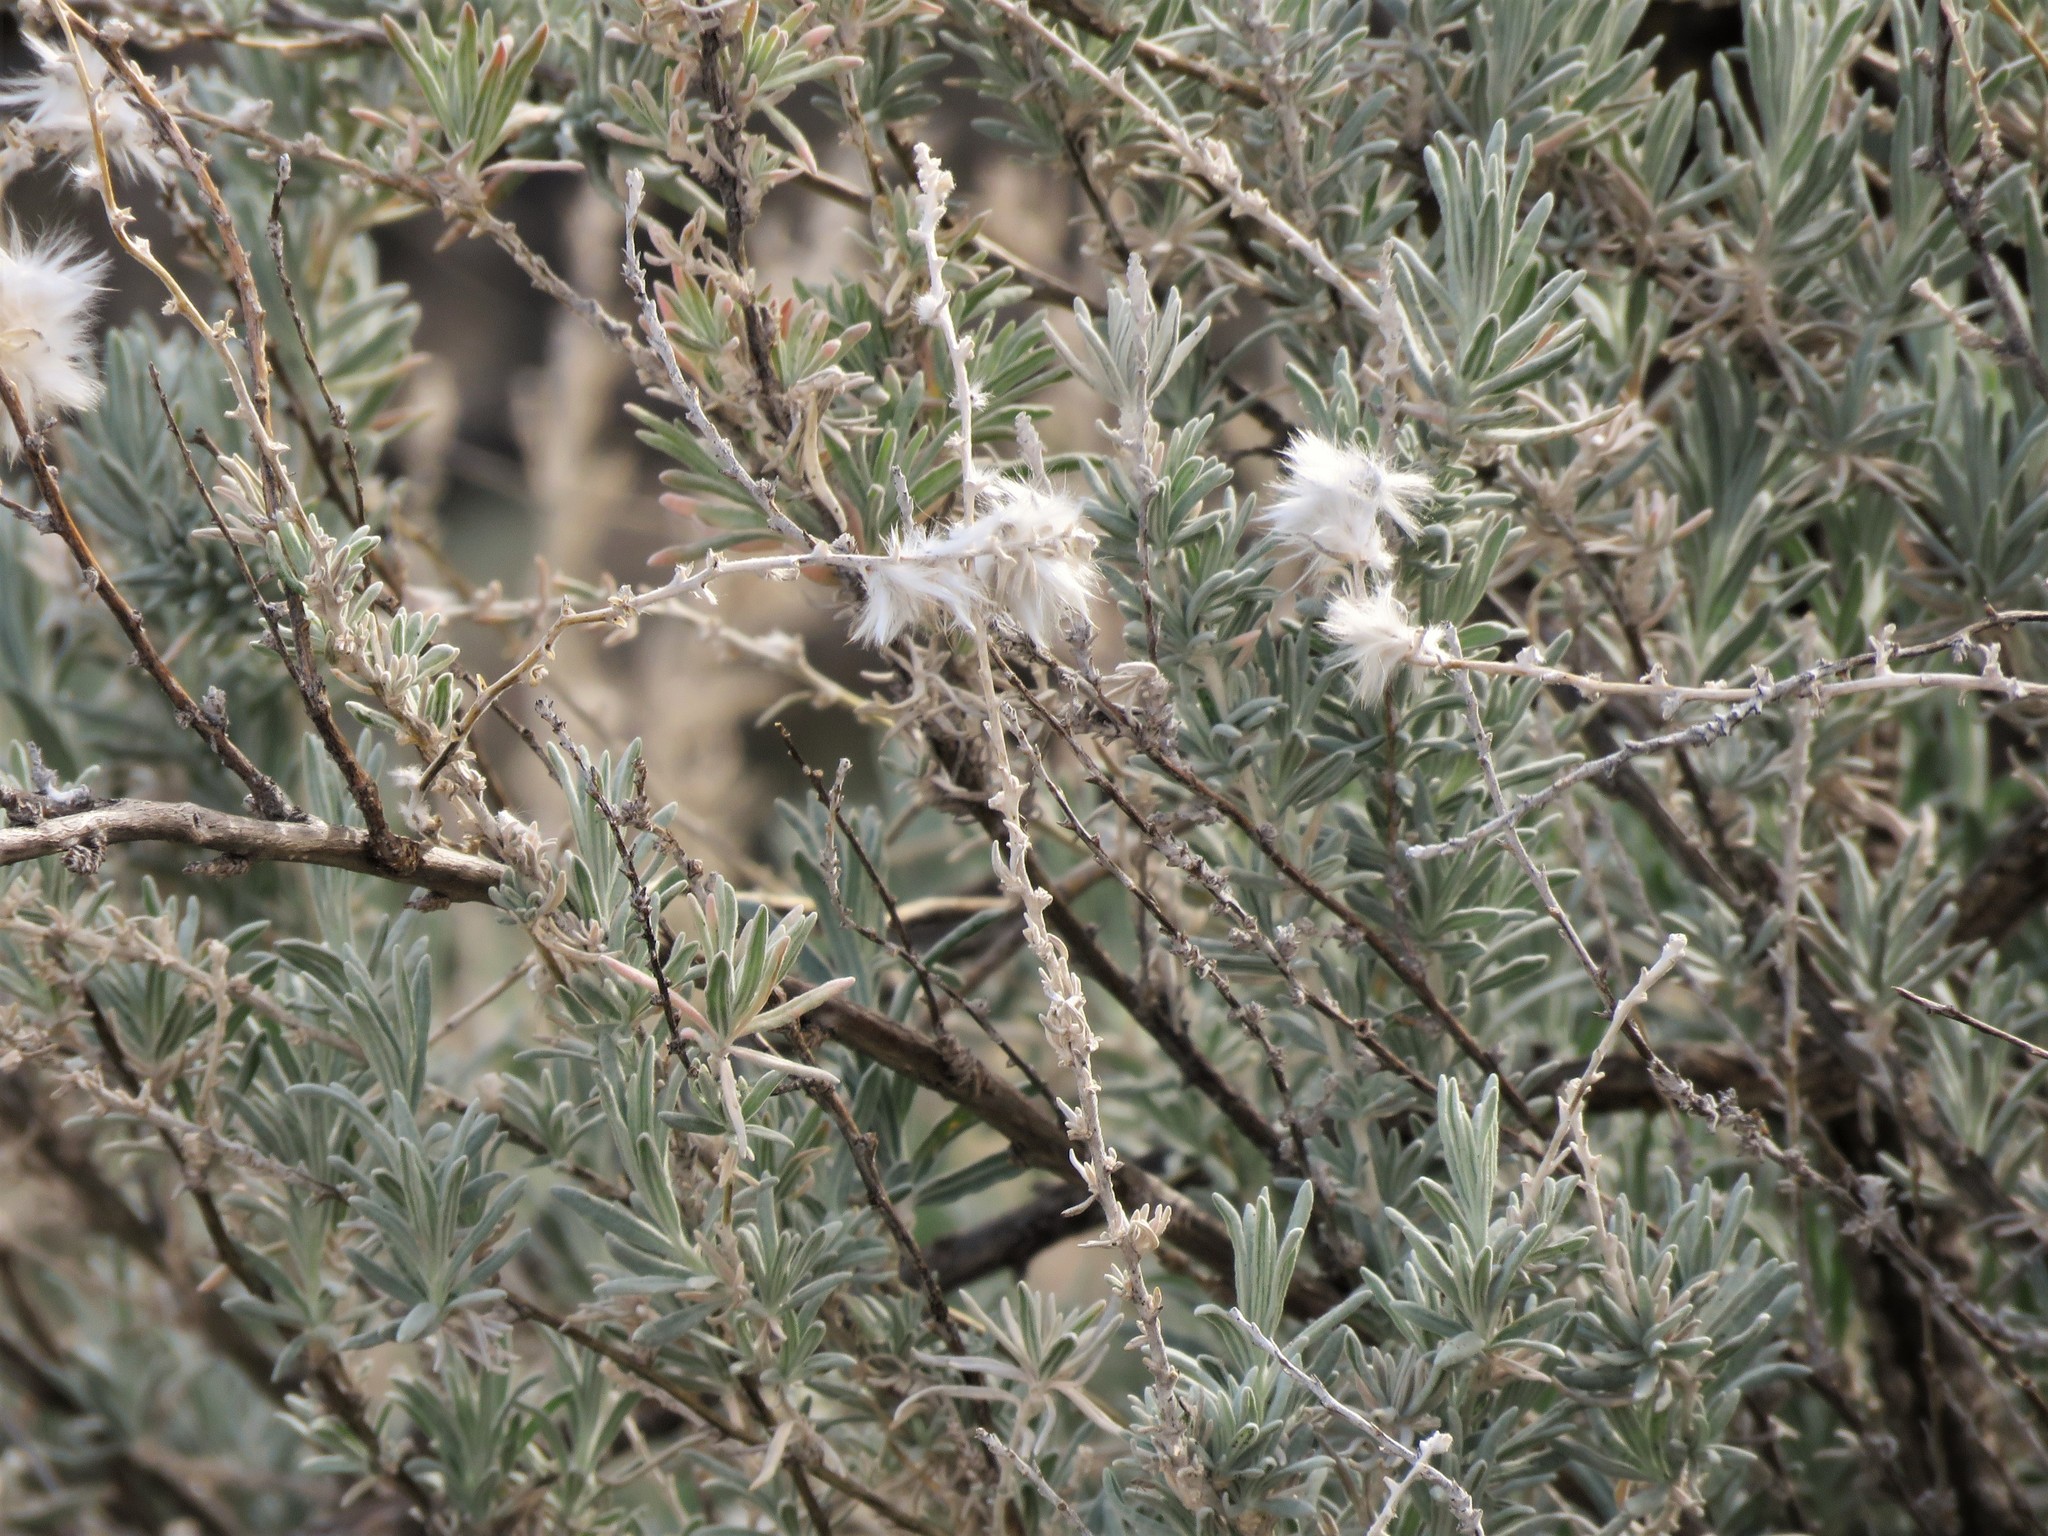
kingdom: Plantae
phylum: Tracheophyta
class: Magnoliopsida
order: Caryophyllales
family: Amaranthaceae
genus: Krascheninnikovia
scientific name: Krascheninnikovia lanata
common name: Winterfat
